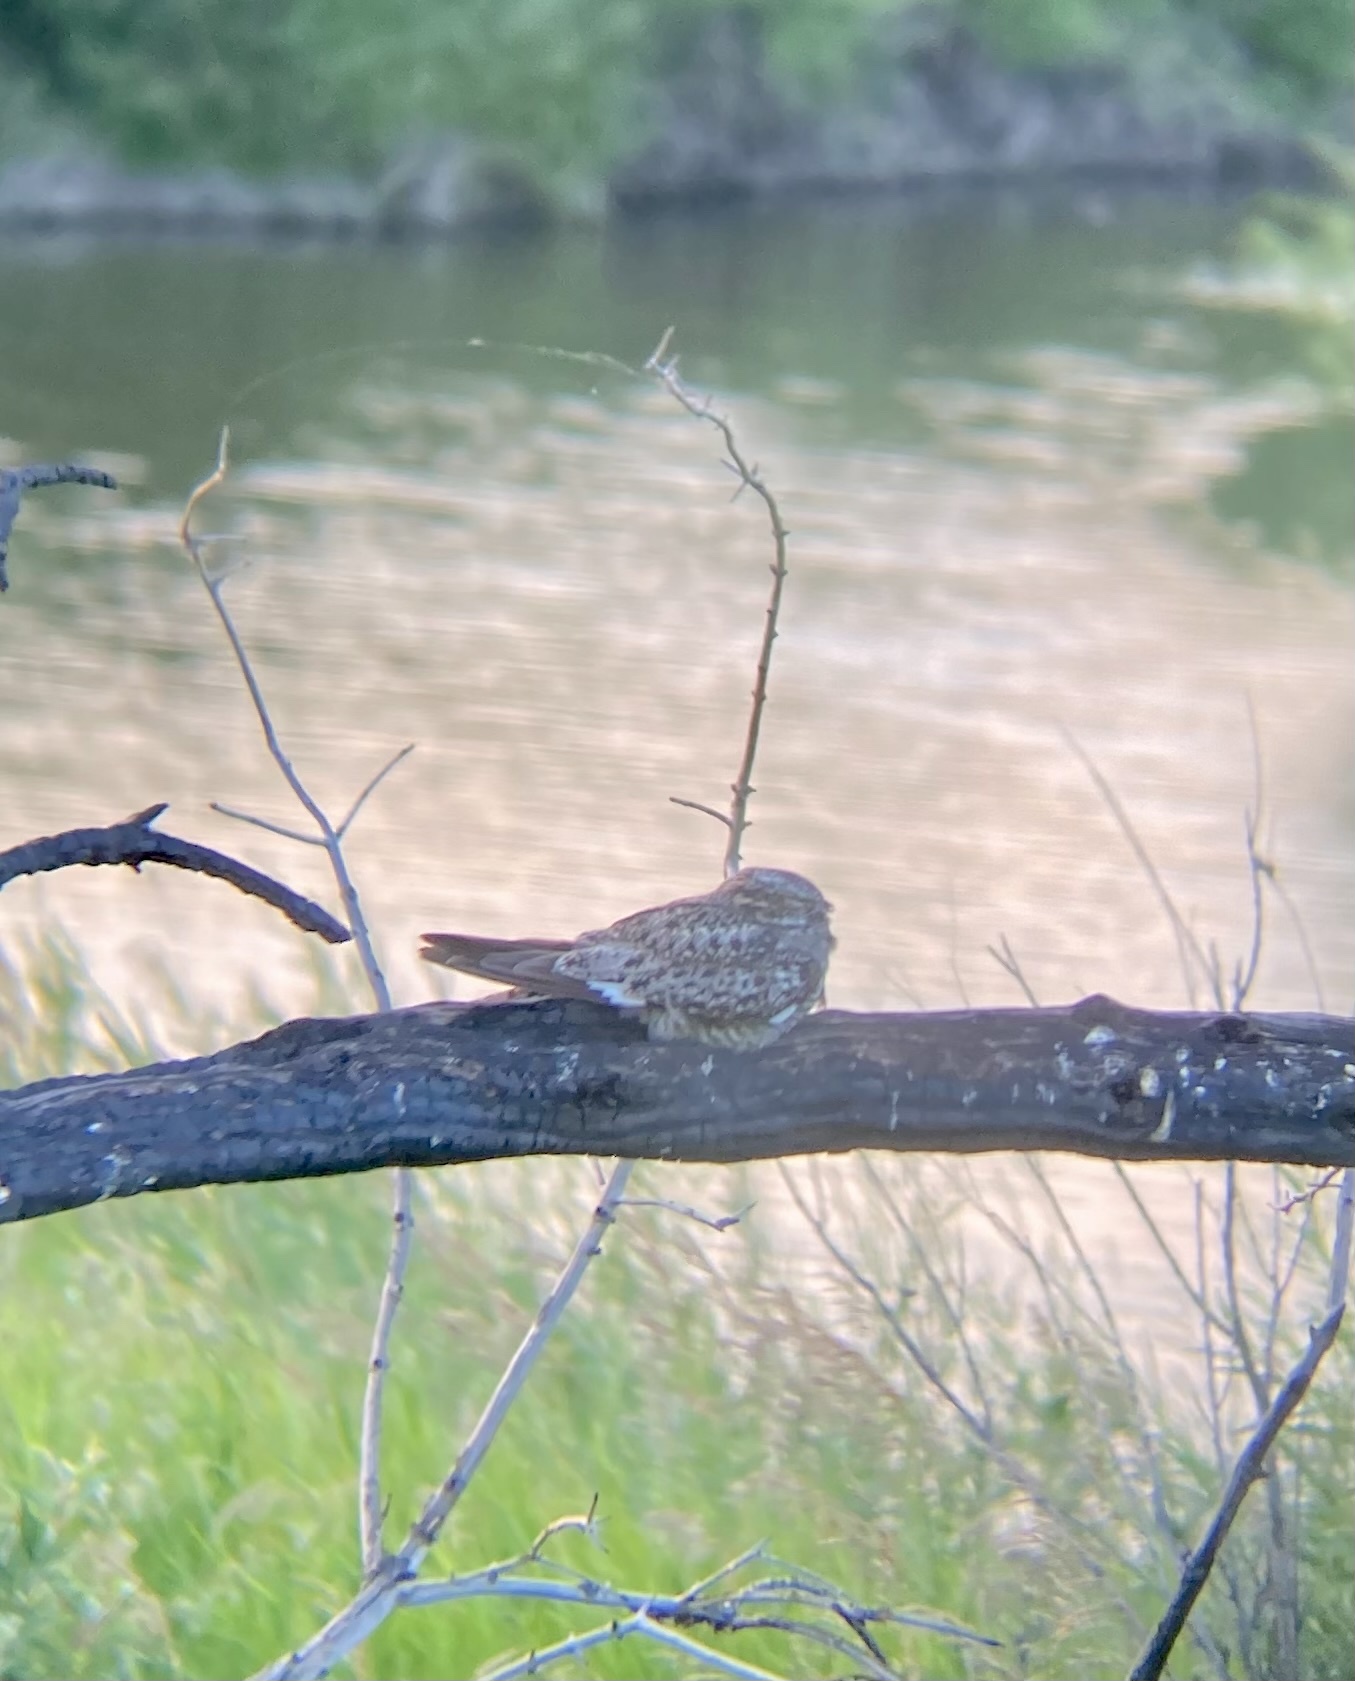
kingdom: Animalia
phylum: Chordata
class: Aves
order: Caprimulgiformes
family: Caprimulgidae
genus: Chordeiles
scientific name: Chordeiles minor
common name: Common nighthawk
